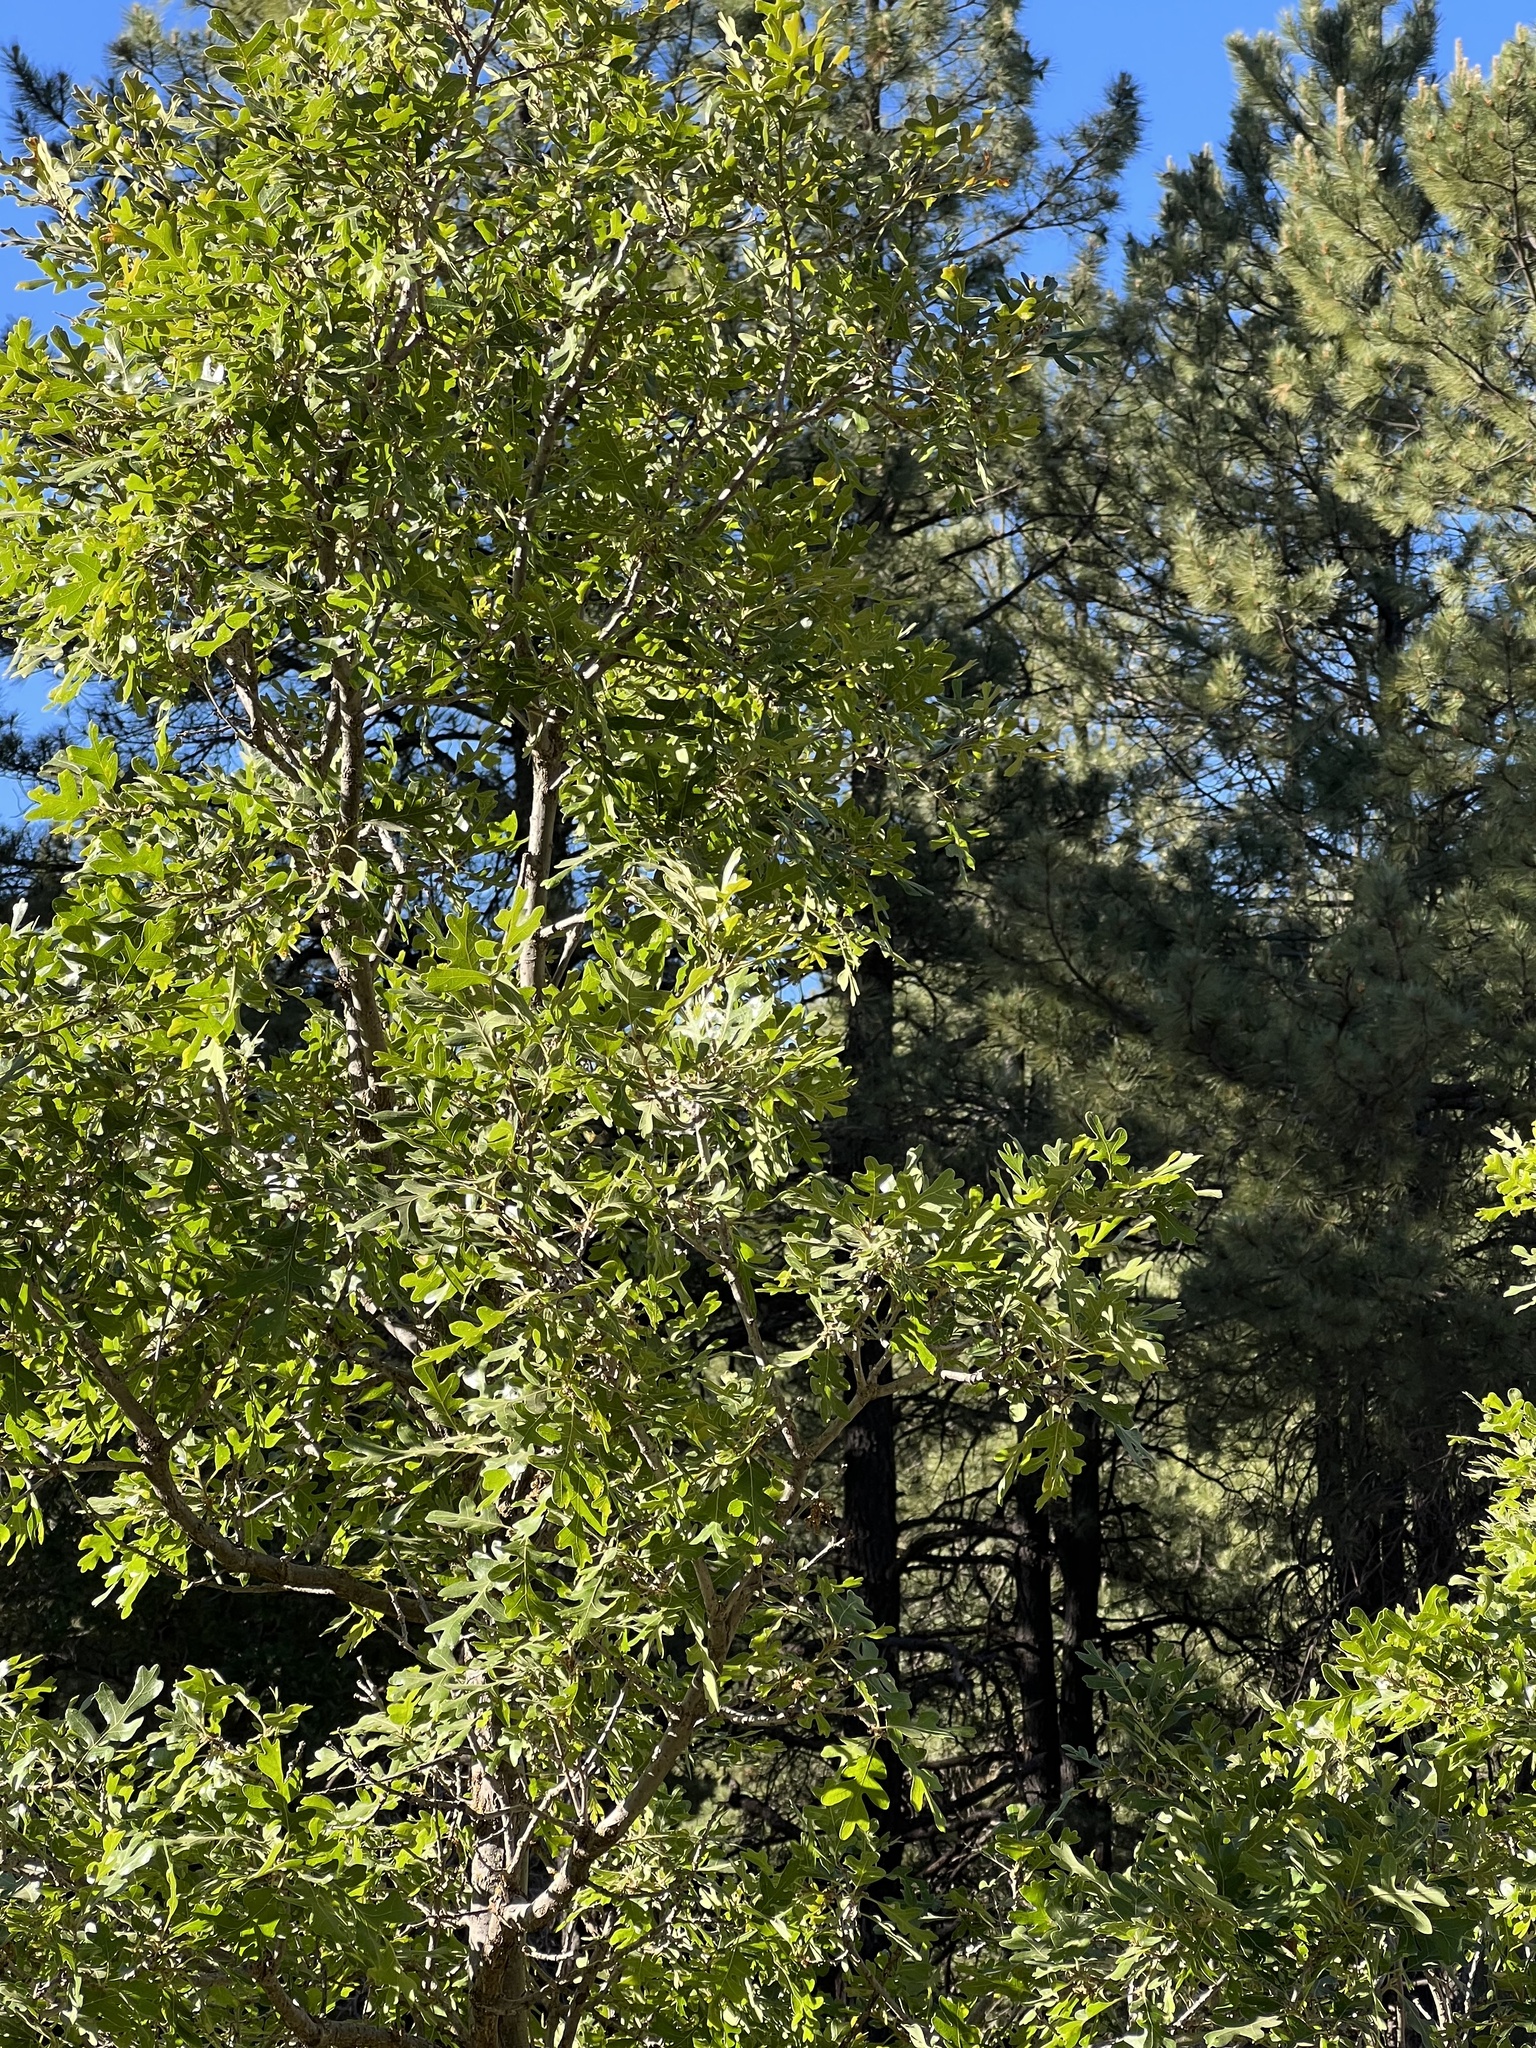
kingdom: Plantae
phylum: Tracheophyta
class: Magnoliopsida
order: Fagales
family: Fagaceae
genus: Quercus
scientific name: Quercus gambelii
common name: Gambel oak
